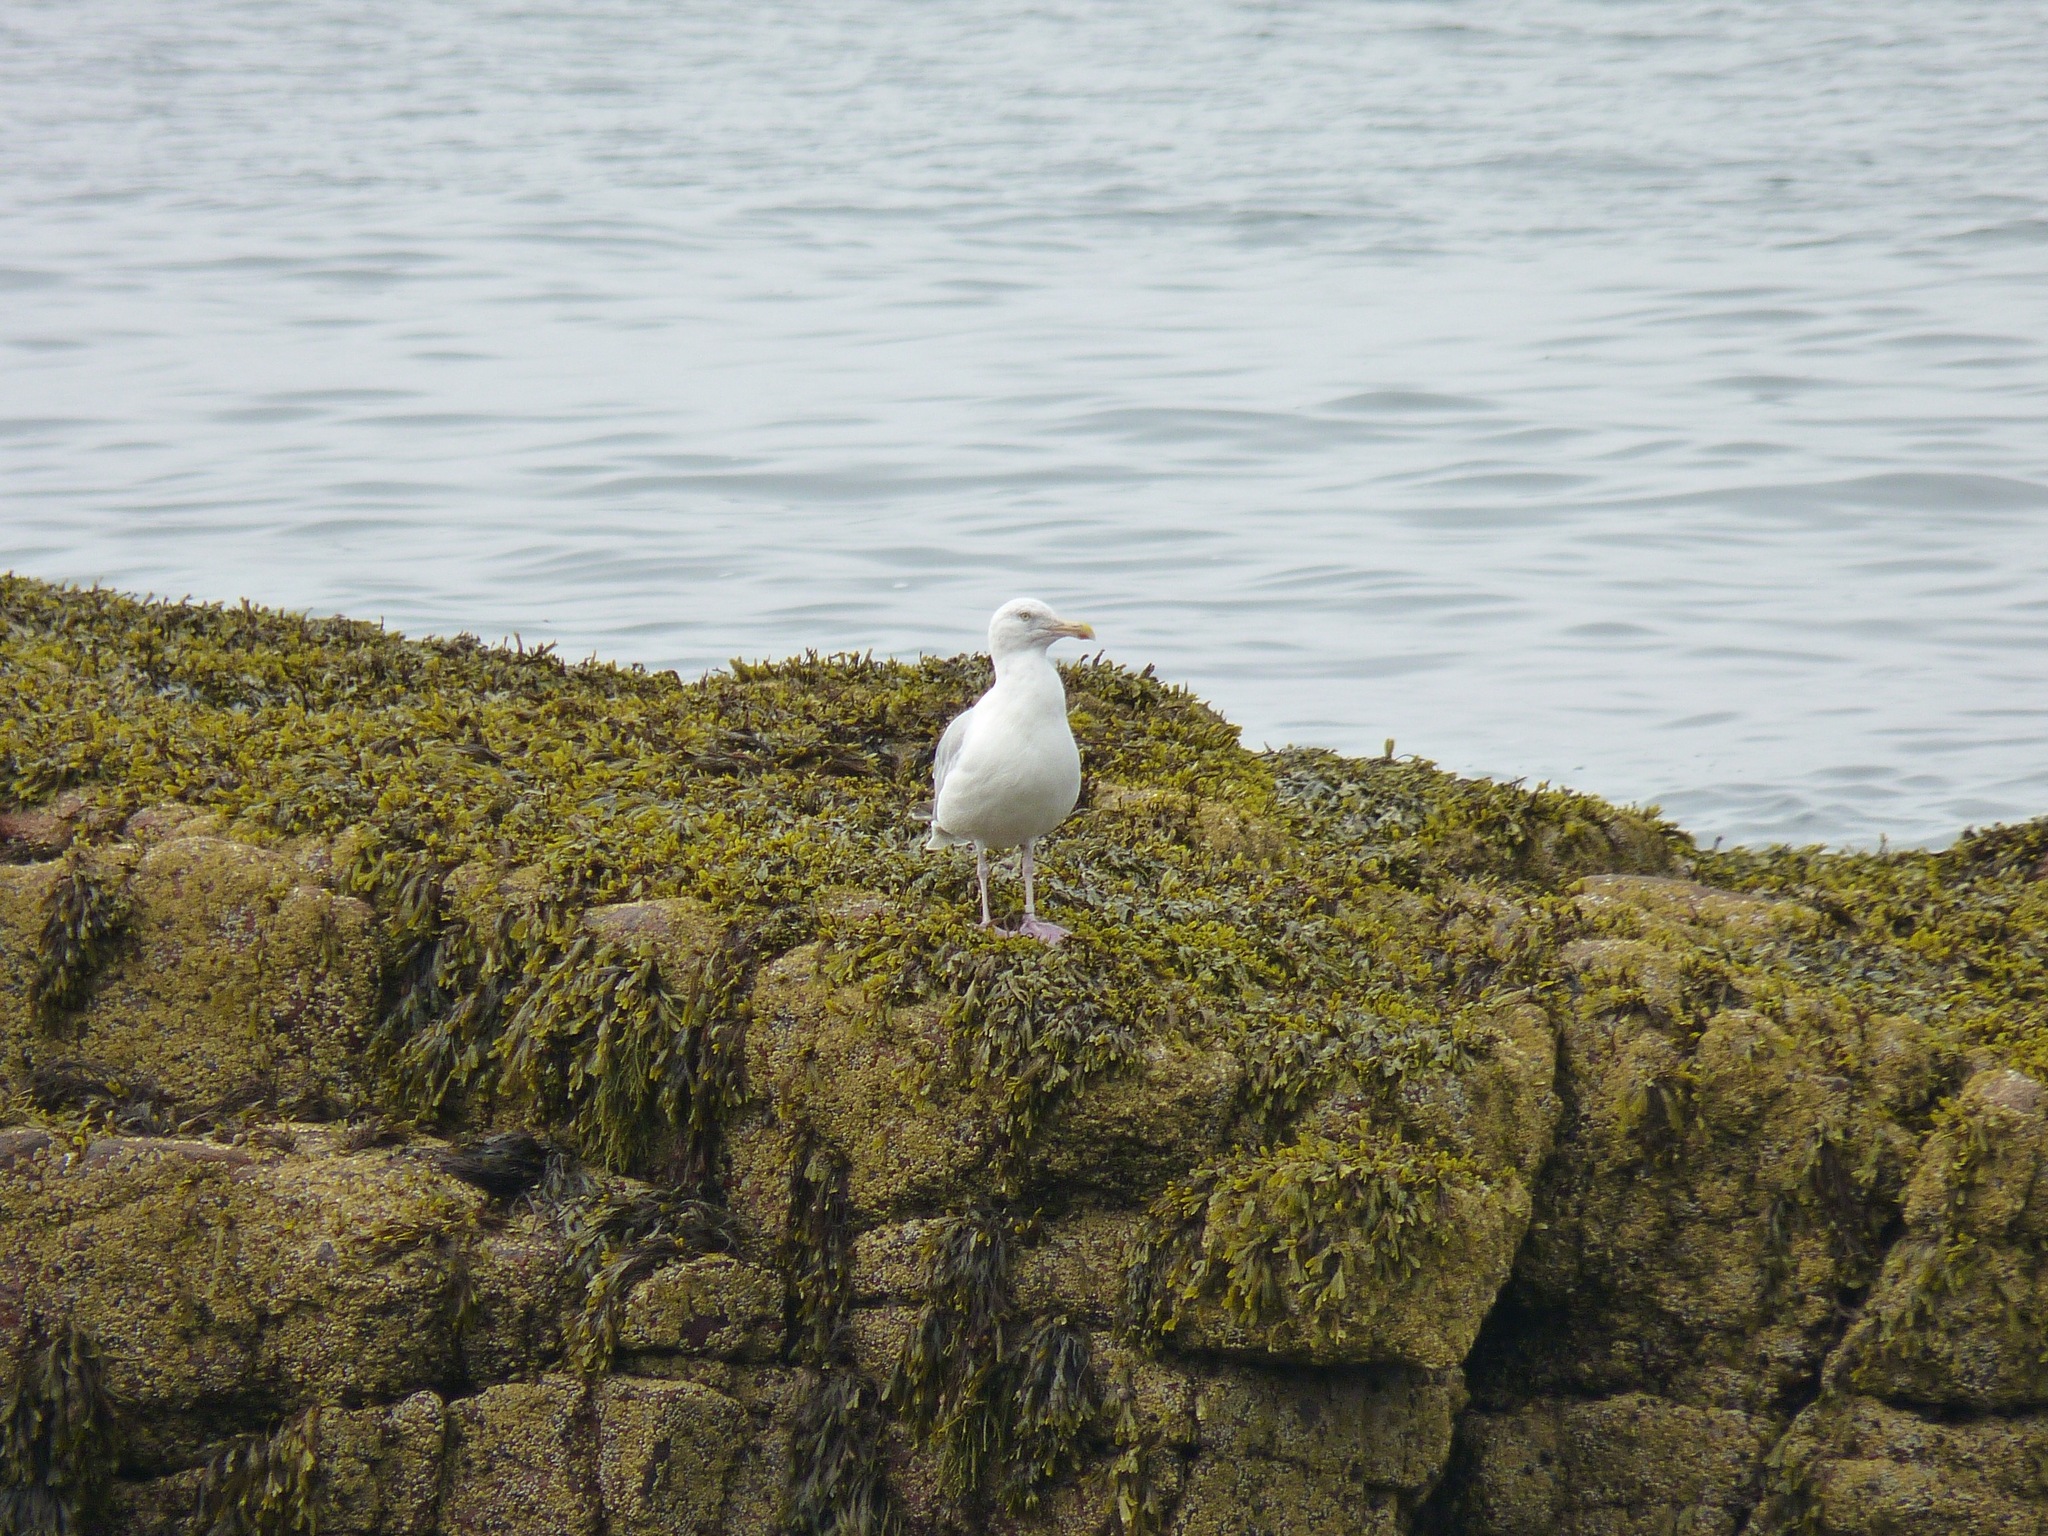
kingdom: Animalia
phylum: Chordata
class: Aves
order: Charadriiformes
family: Laridae
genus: Larus
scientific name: Larus argentatus
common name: Herring gull
